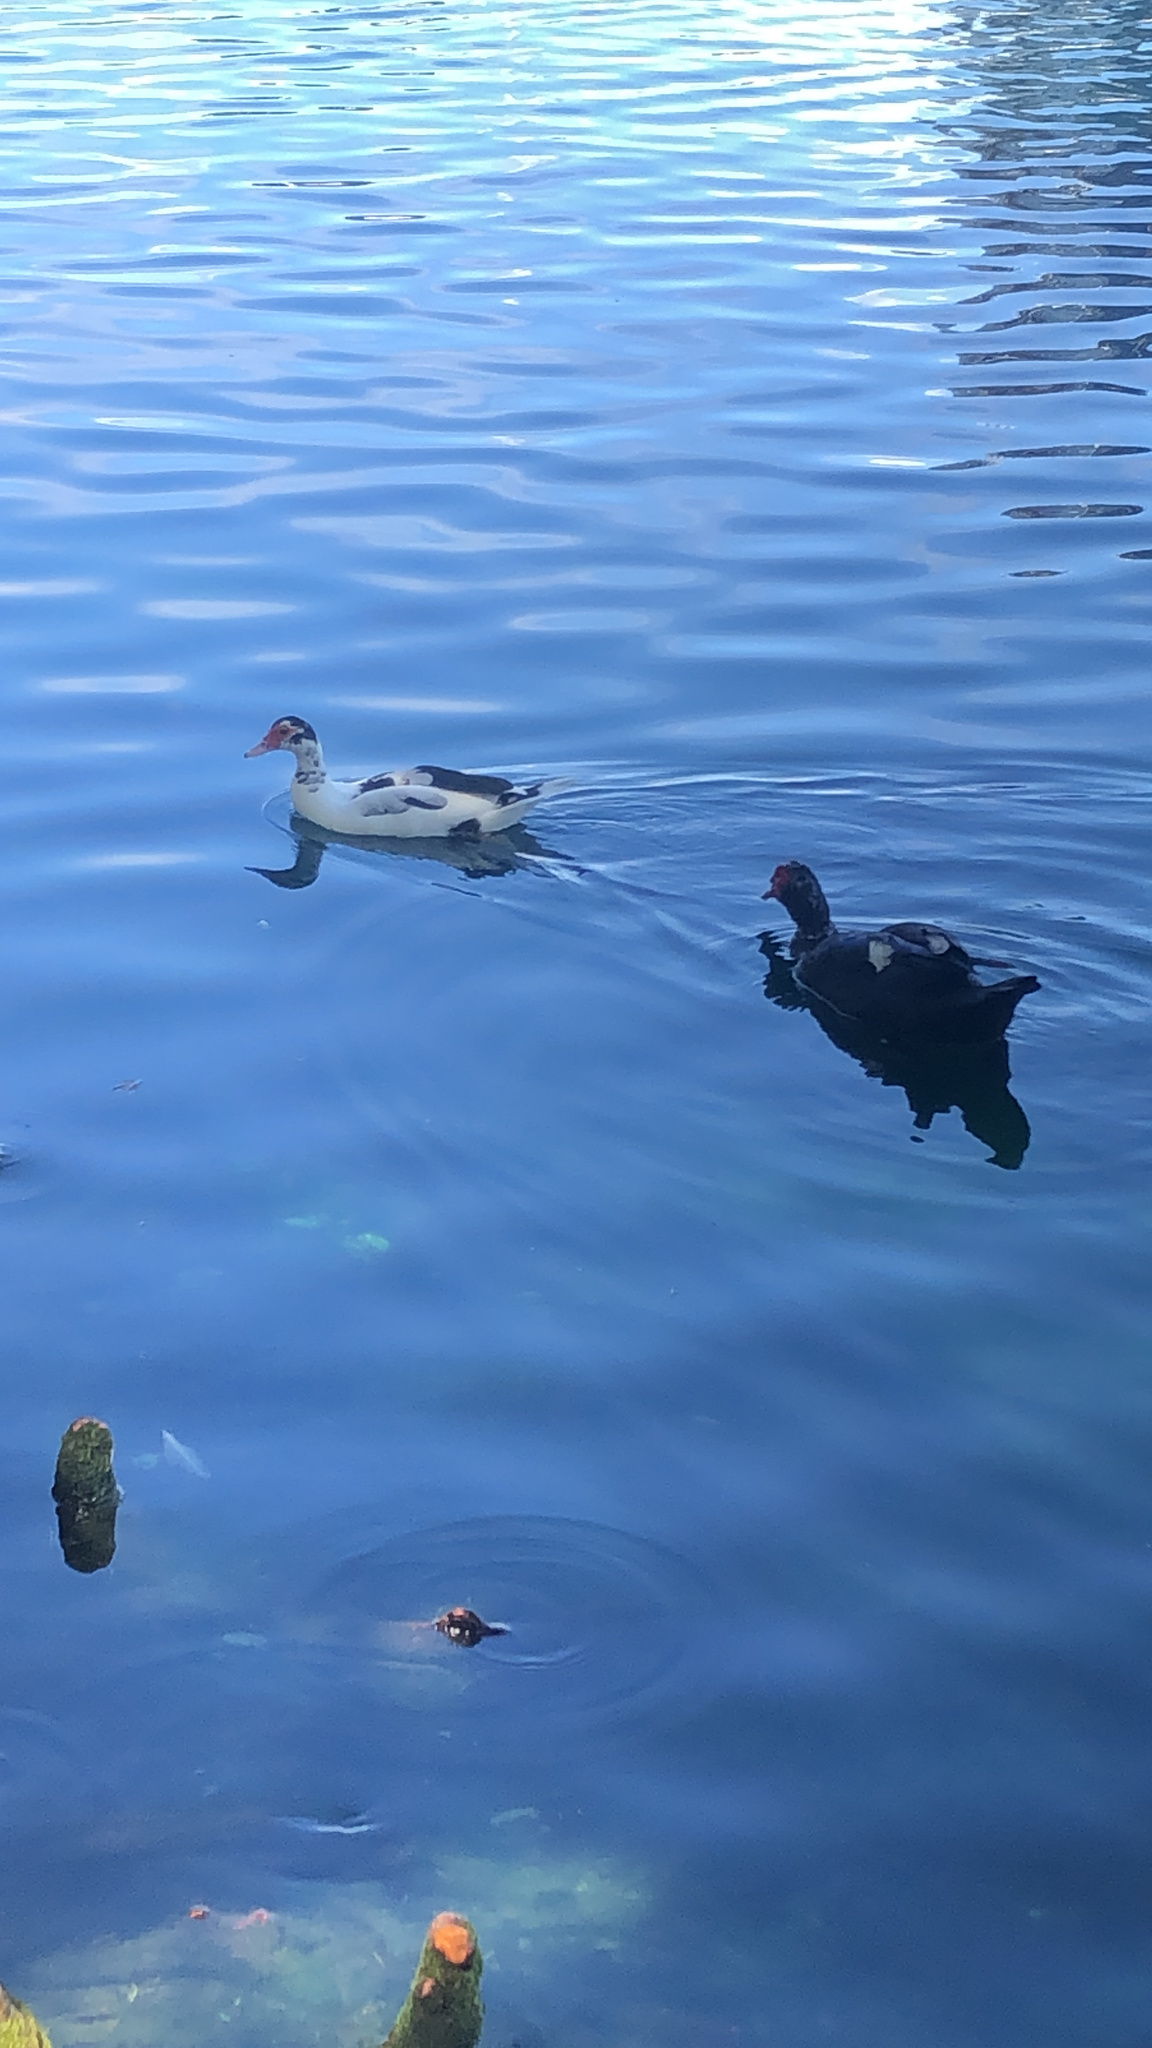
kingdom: Animalia
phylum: Chordata
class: Aves
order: Anseriformes
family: Anatidae
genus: Cairina
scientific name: Cairina moschata
